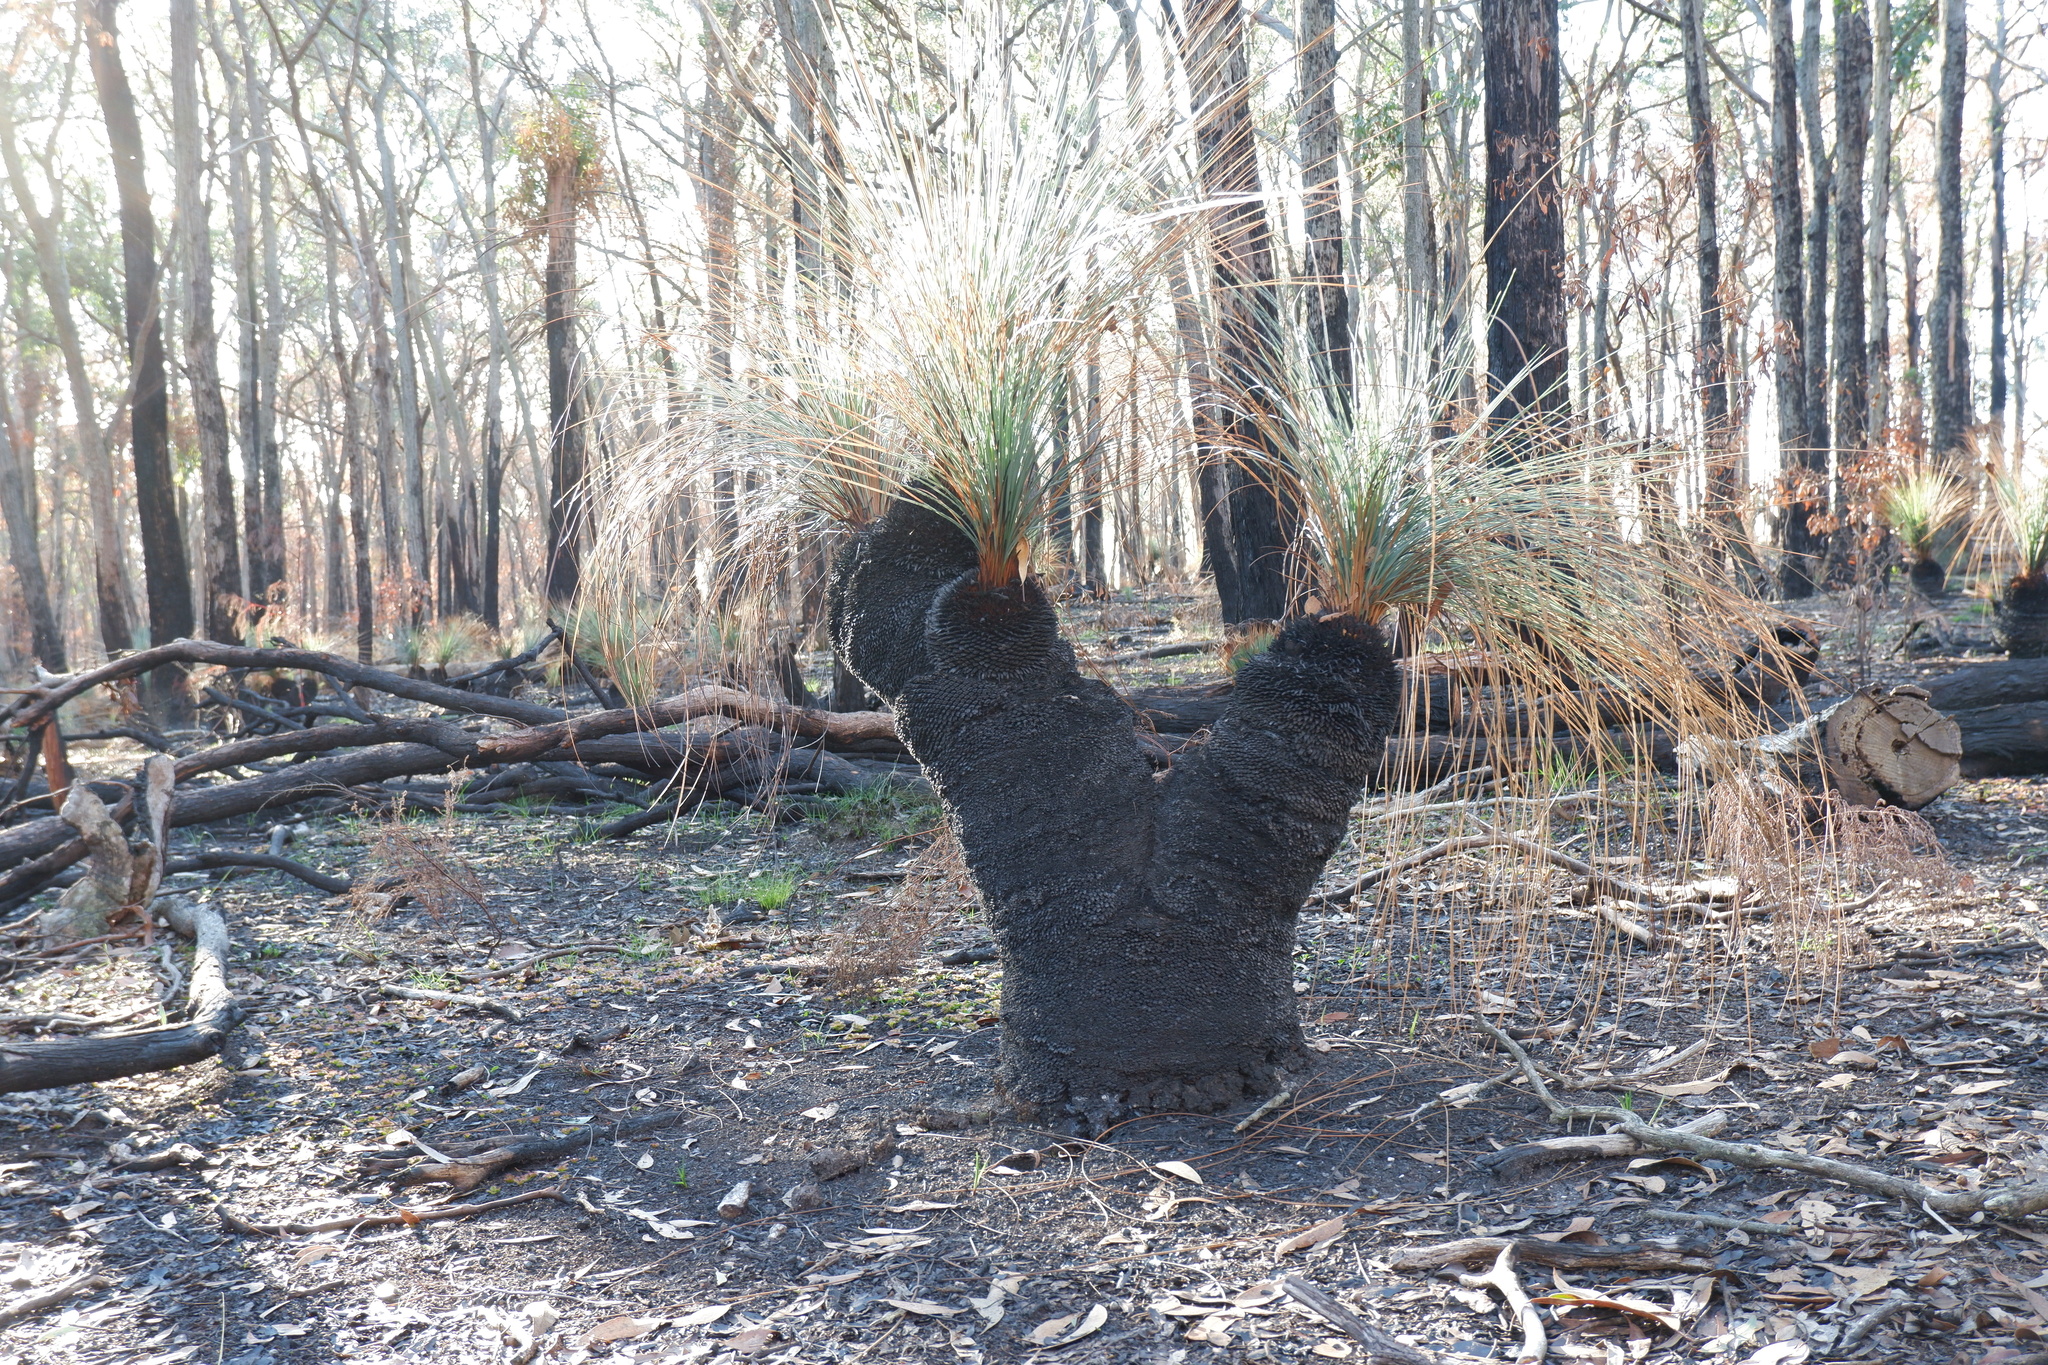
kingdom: Plantae
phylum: Tracheophyta
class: Liliopsida
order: Asparagales
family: Asphodelaceae
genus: Xanthorrhoea
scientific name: Xanthorrhoea australis
